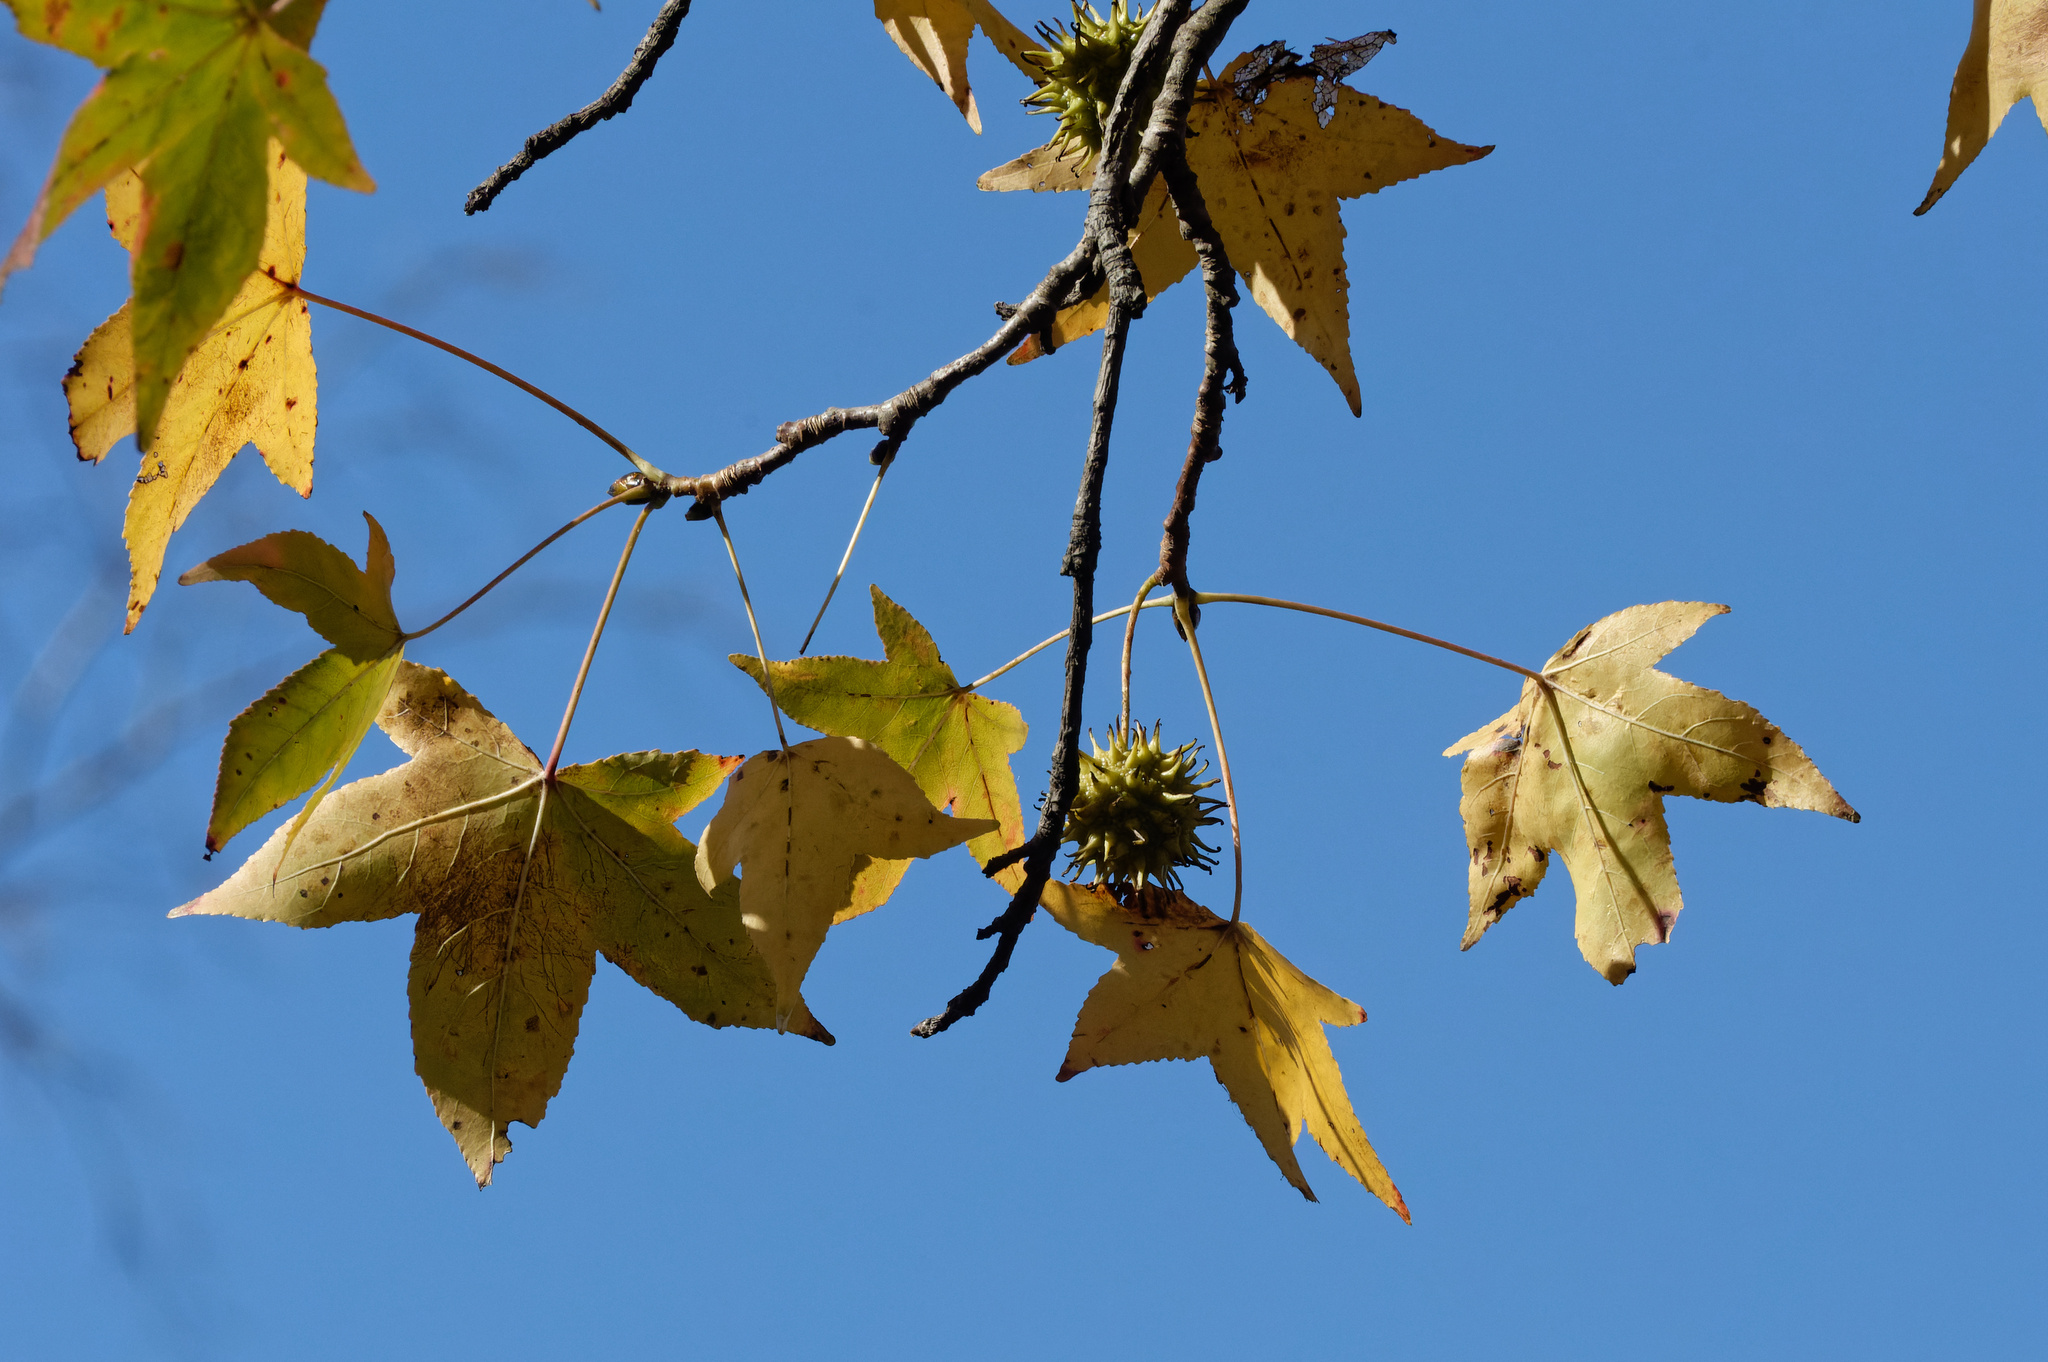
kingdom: Plantae
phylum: Tracheophyta
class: Magnoliopsida
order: Saxifragales
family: Altingiaceae
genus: Liquidambar
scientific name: Liquidambar styraciflua
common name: Sweet gum
